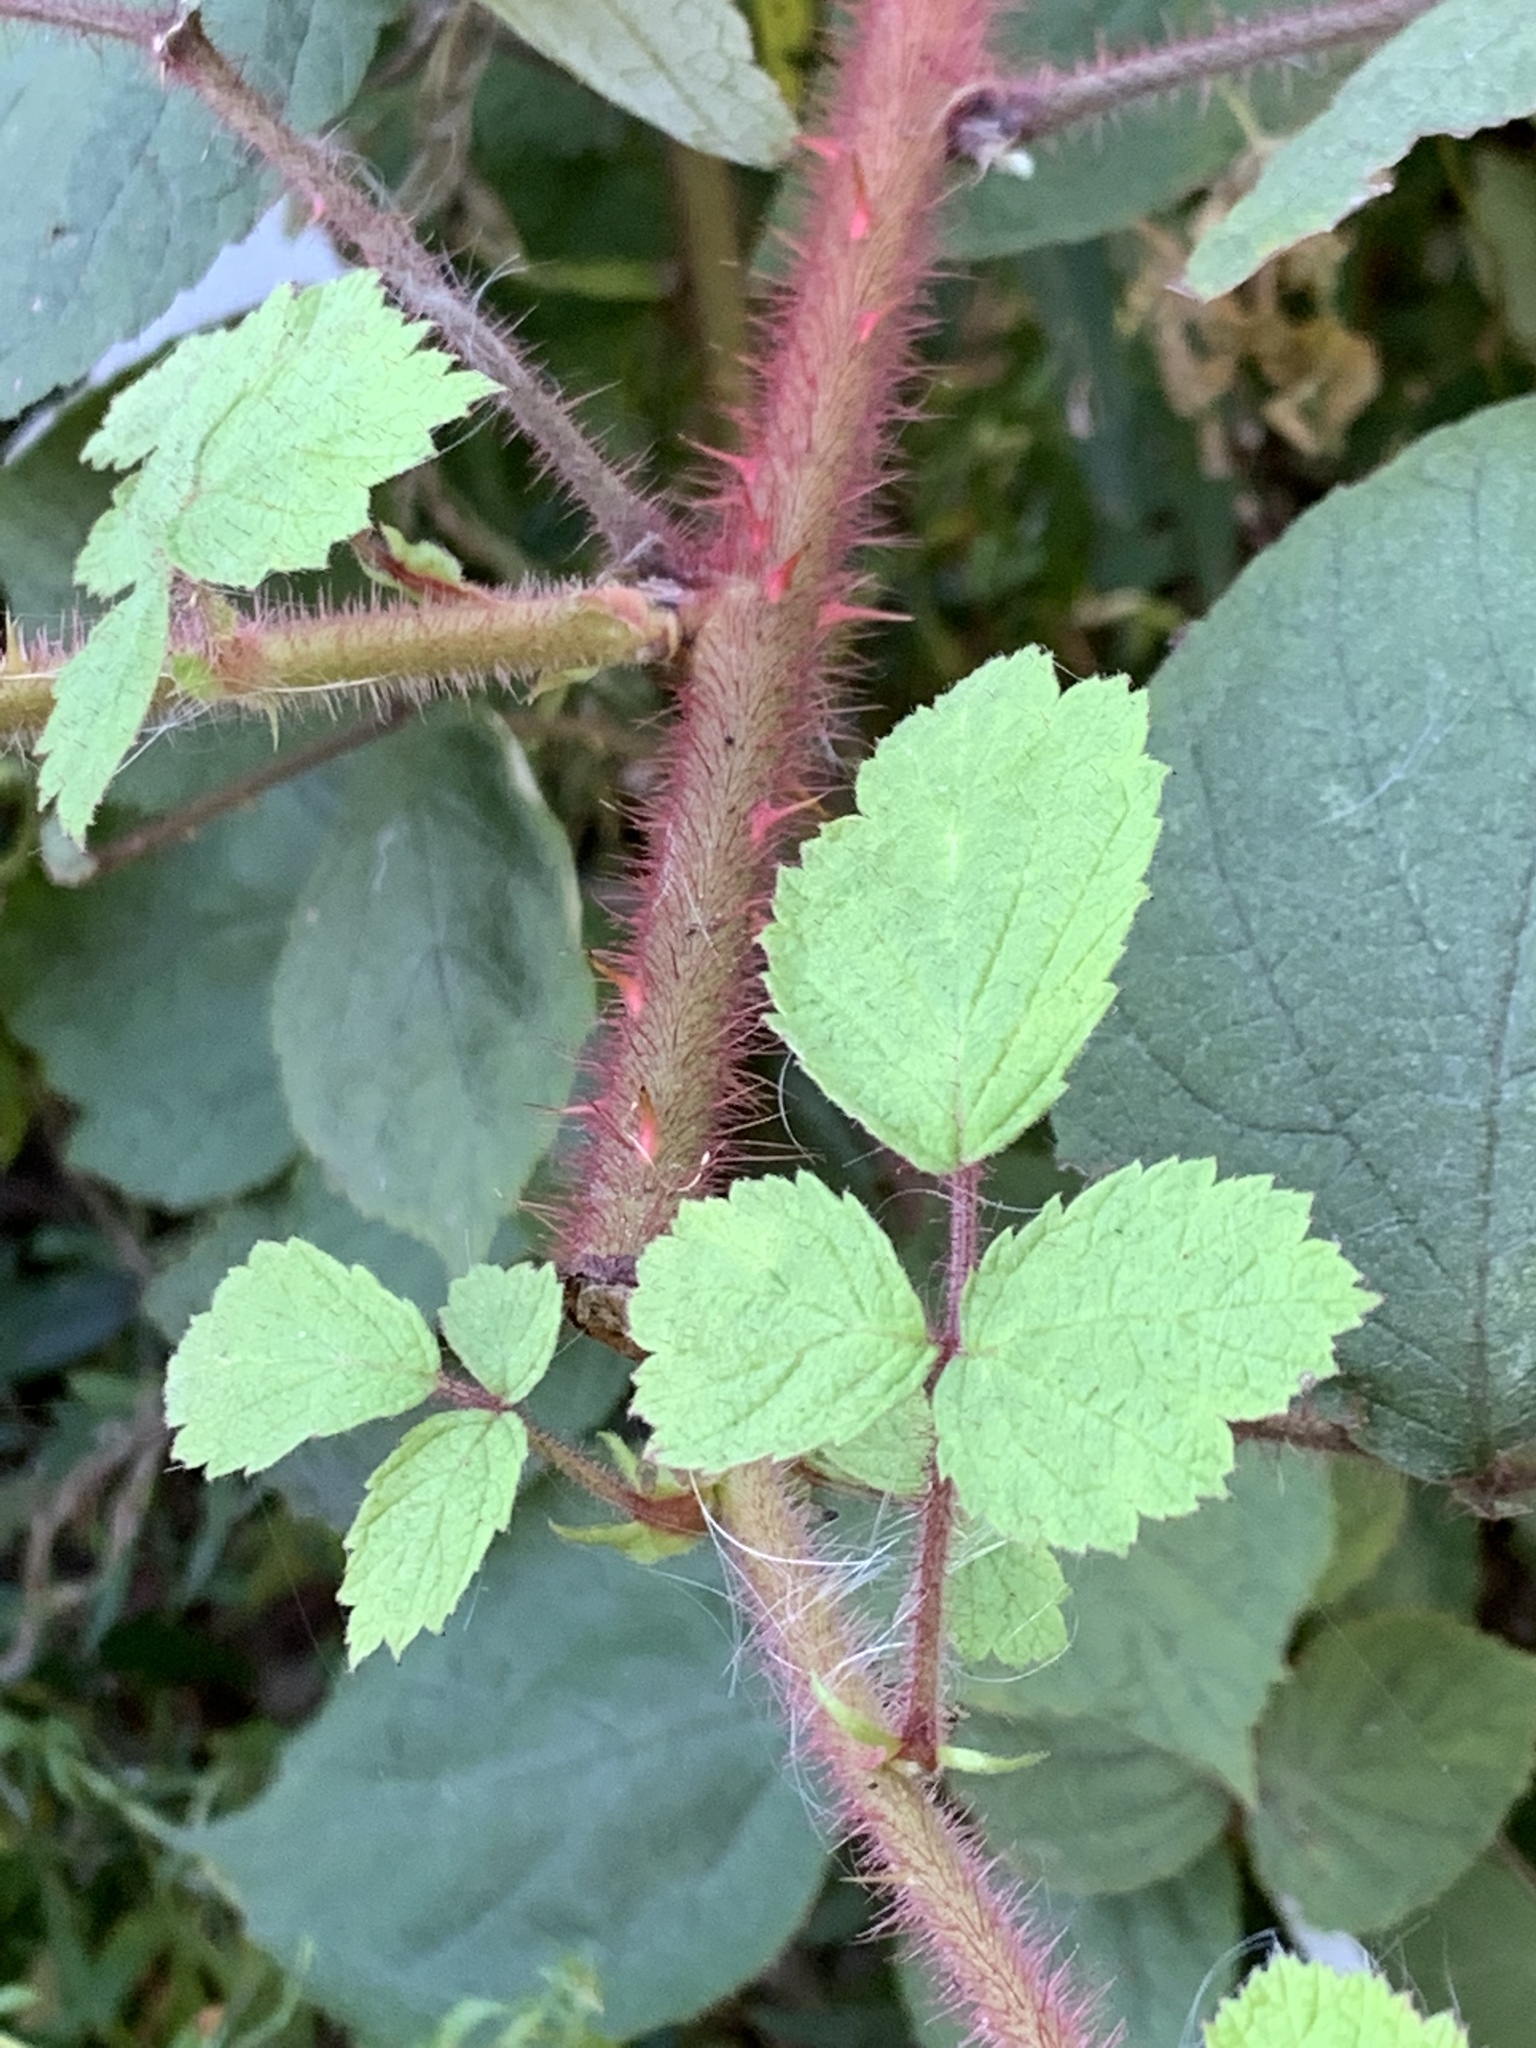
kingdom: Plantae
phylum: Tracheophyta
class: Magnoliopsida
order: Rosales
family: Rosaceae
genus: Rubus
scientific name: Rubus phoenicolasius
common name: Japanese wineberry
